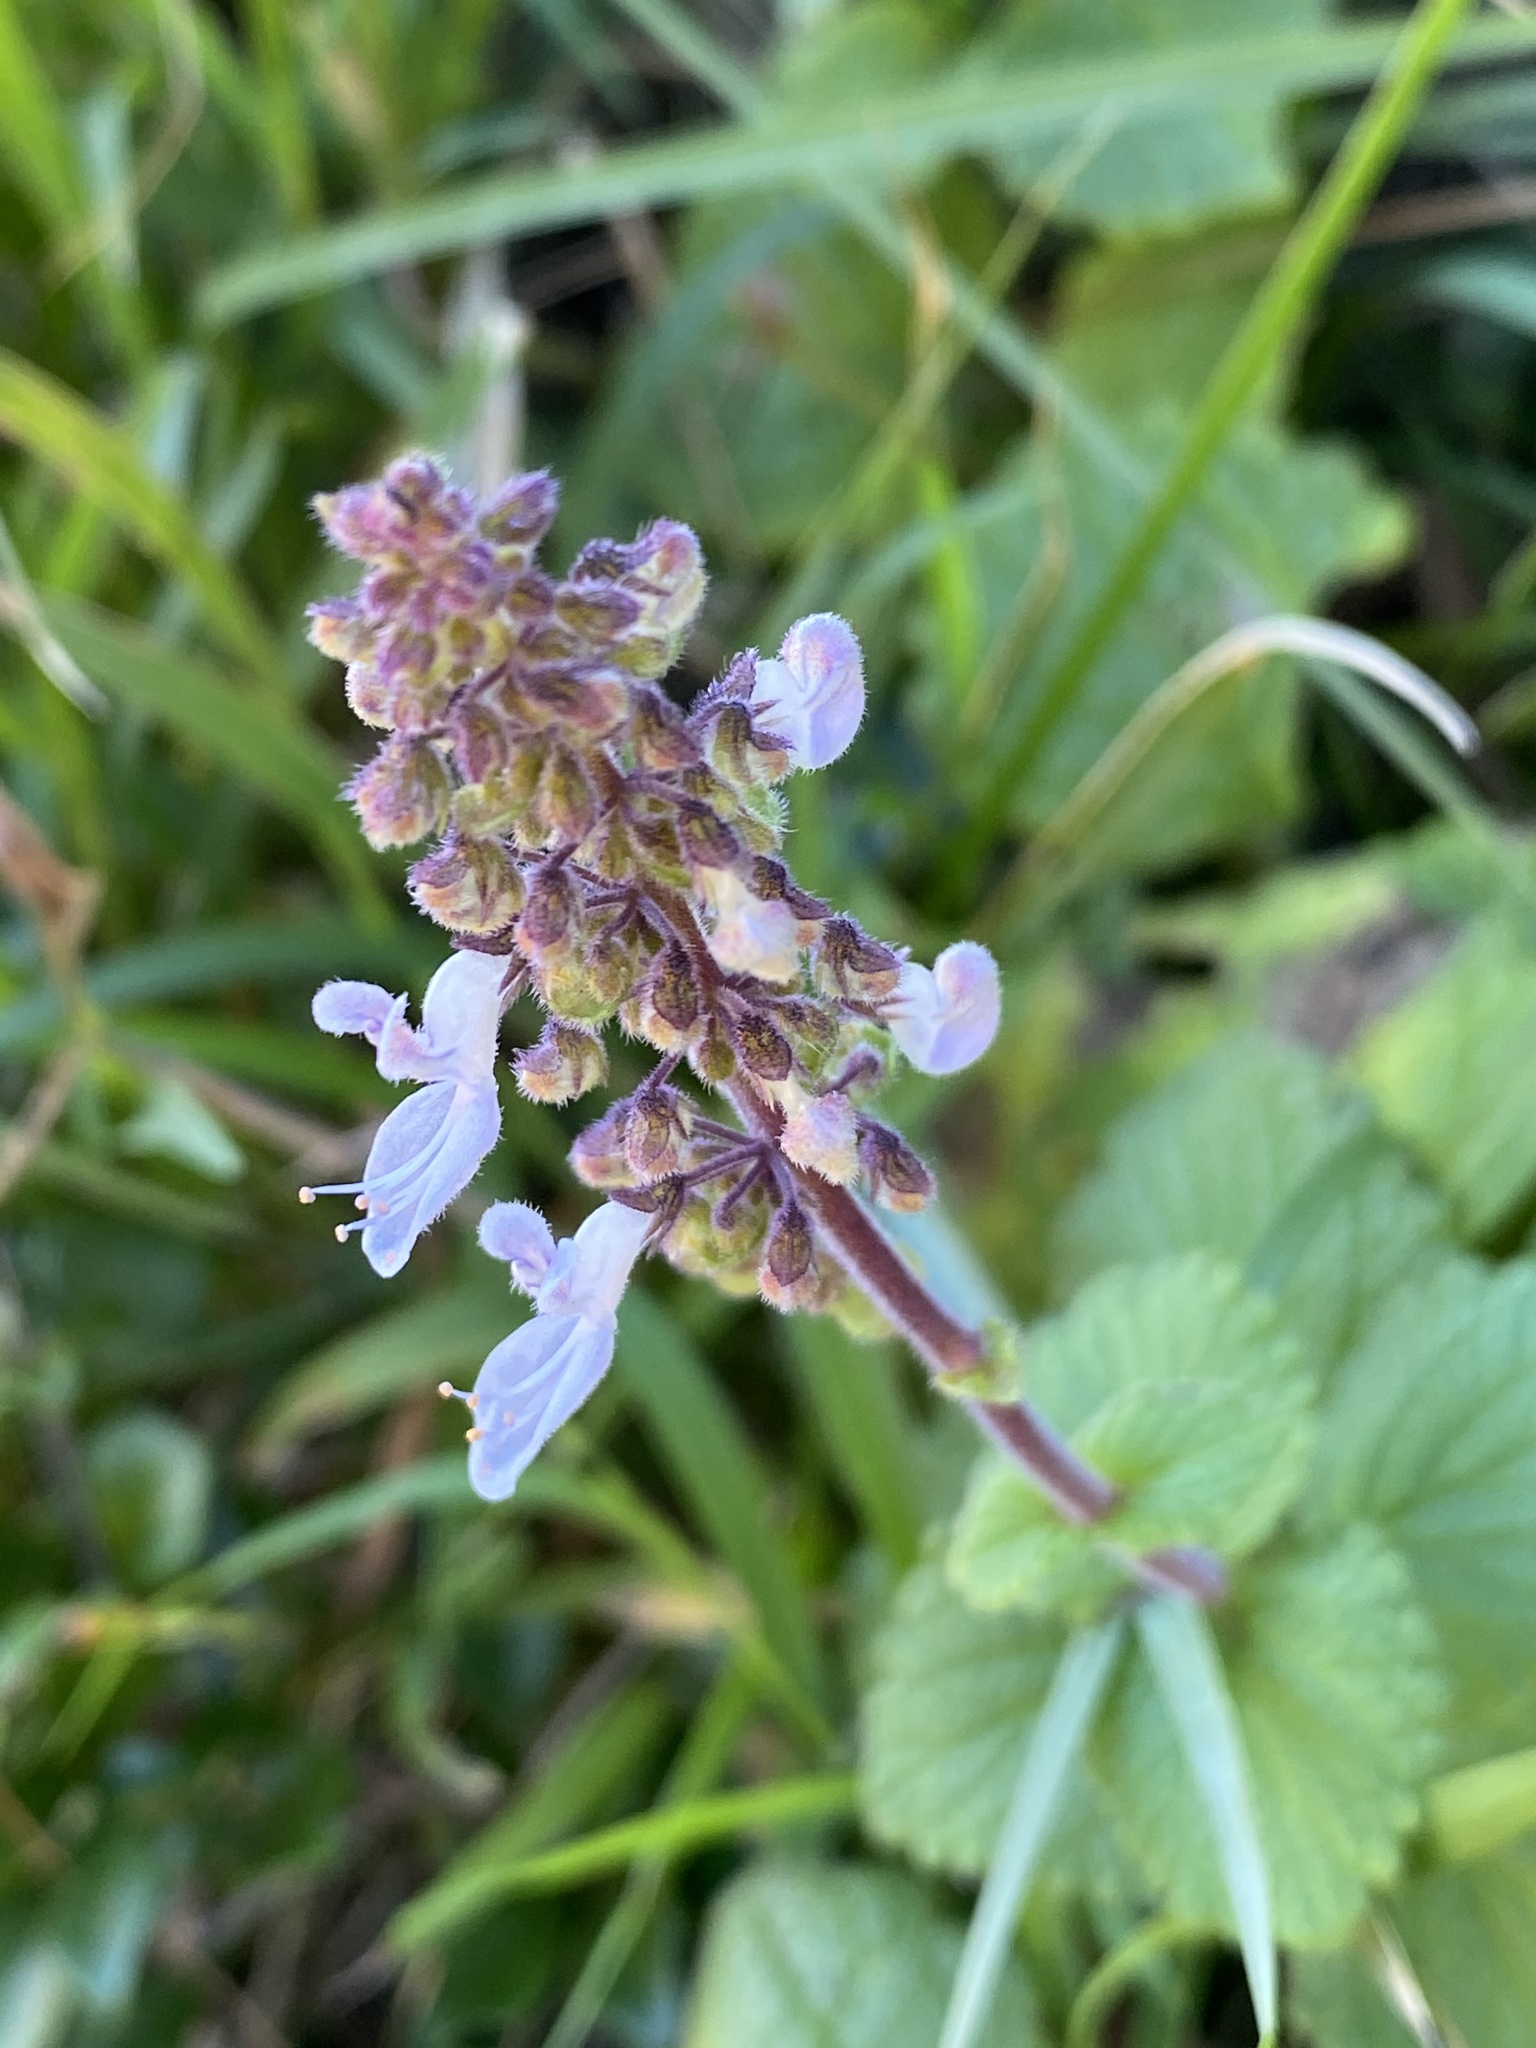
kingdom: Plantae
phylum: Tracheophyta
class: Magnoliopsida
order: Lamiales
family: Lamiaceae
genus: Coleus
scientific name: Coleus hadiensis
